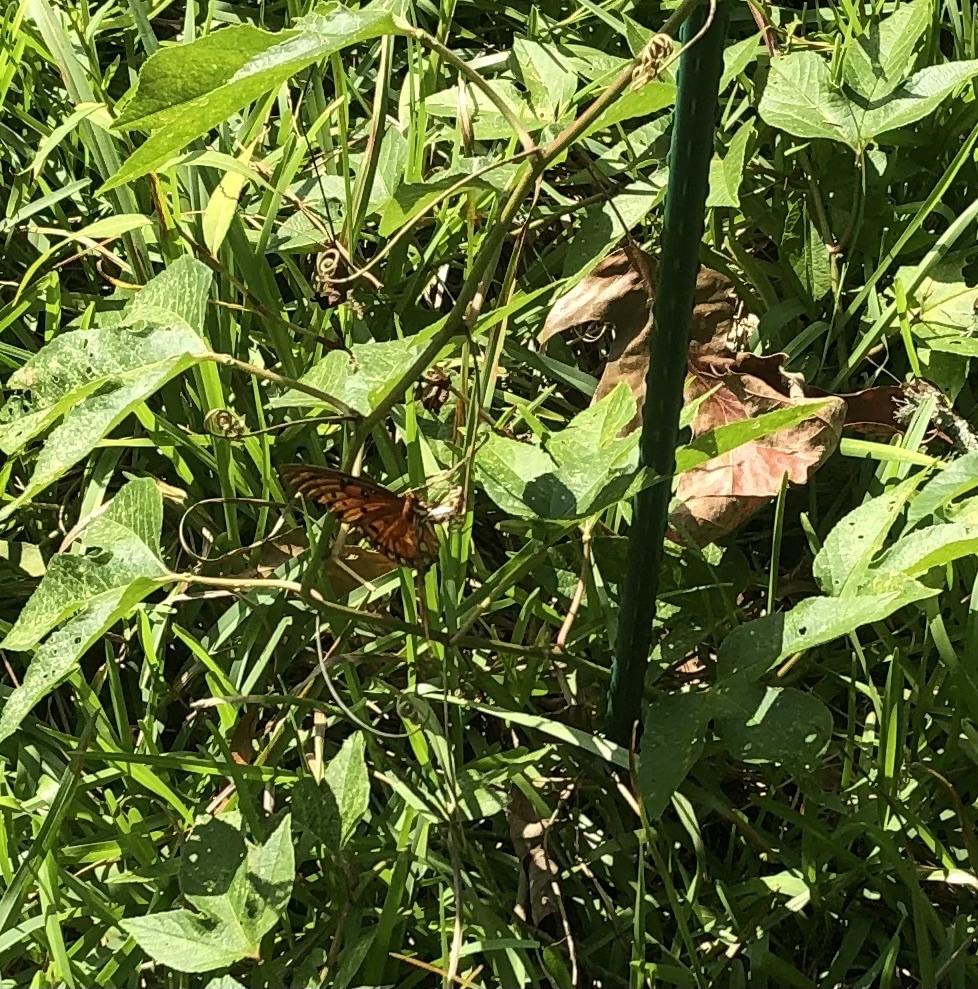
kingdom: Animalia
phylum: Arthropoda
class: Insecta
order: Lepidoptera
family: Nymphalidae
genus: Dione
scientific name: Dione vanillae
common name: Gulf fritillary
